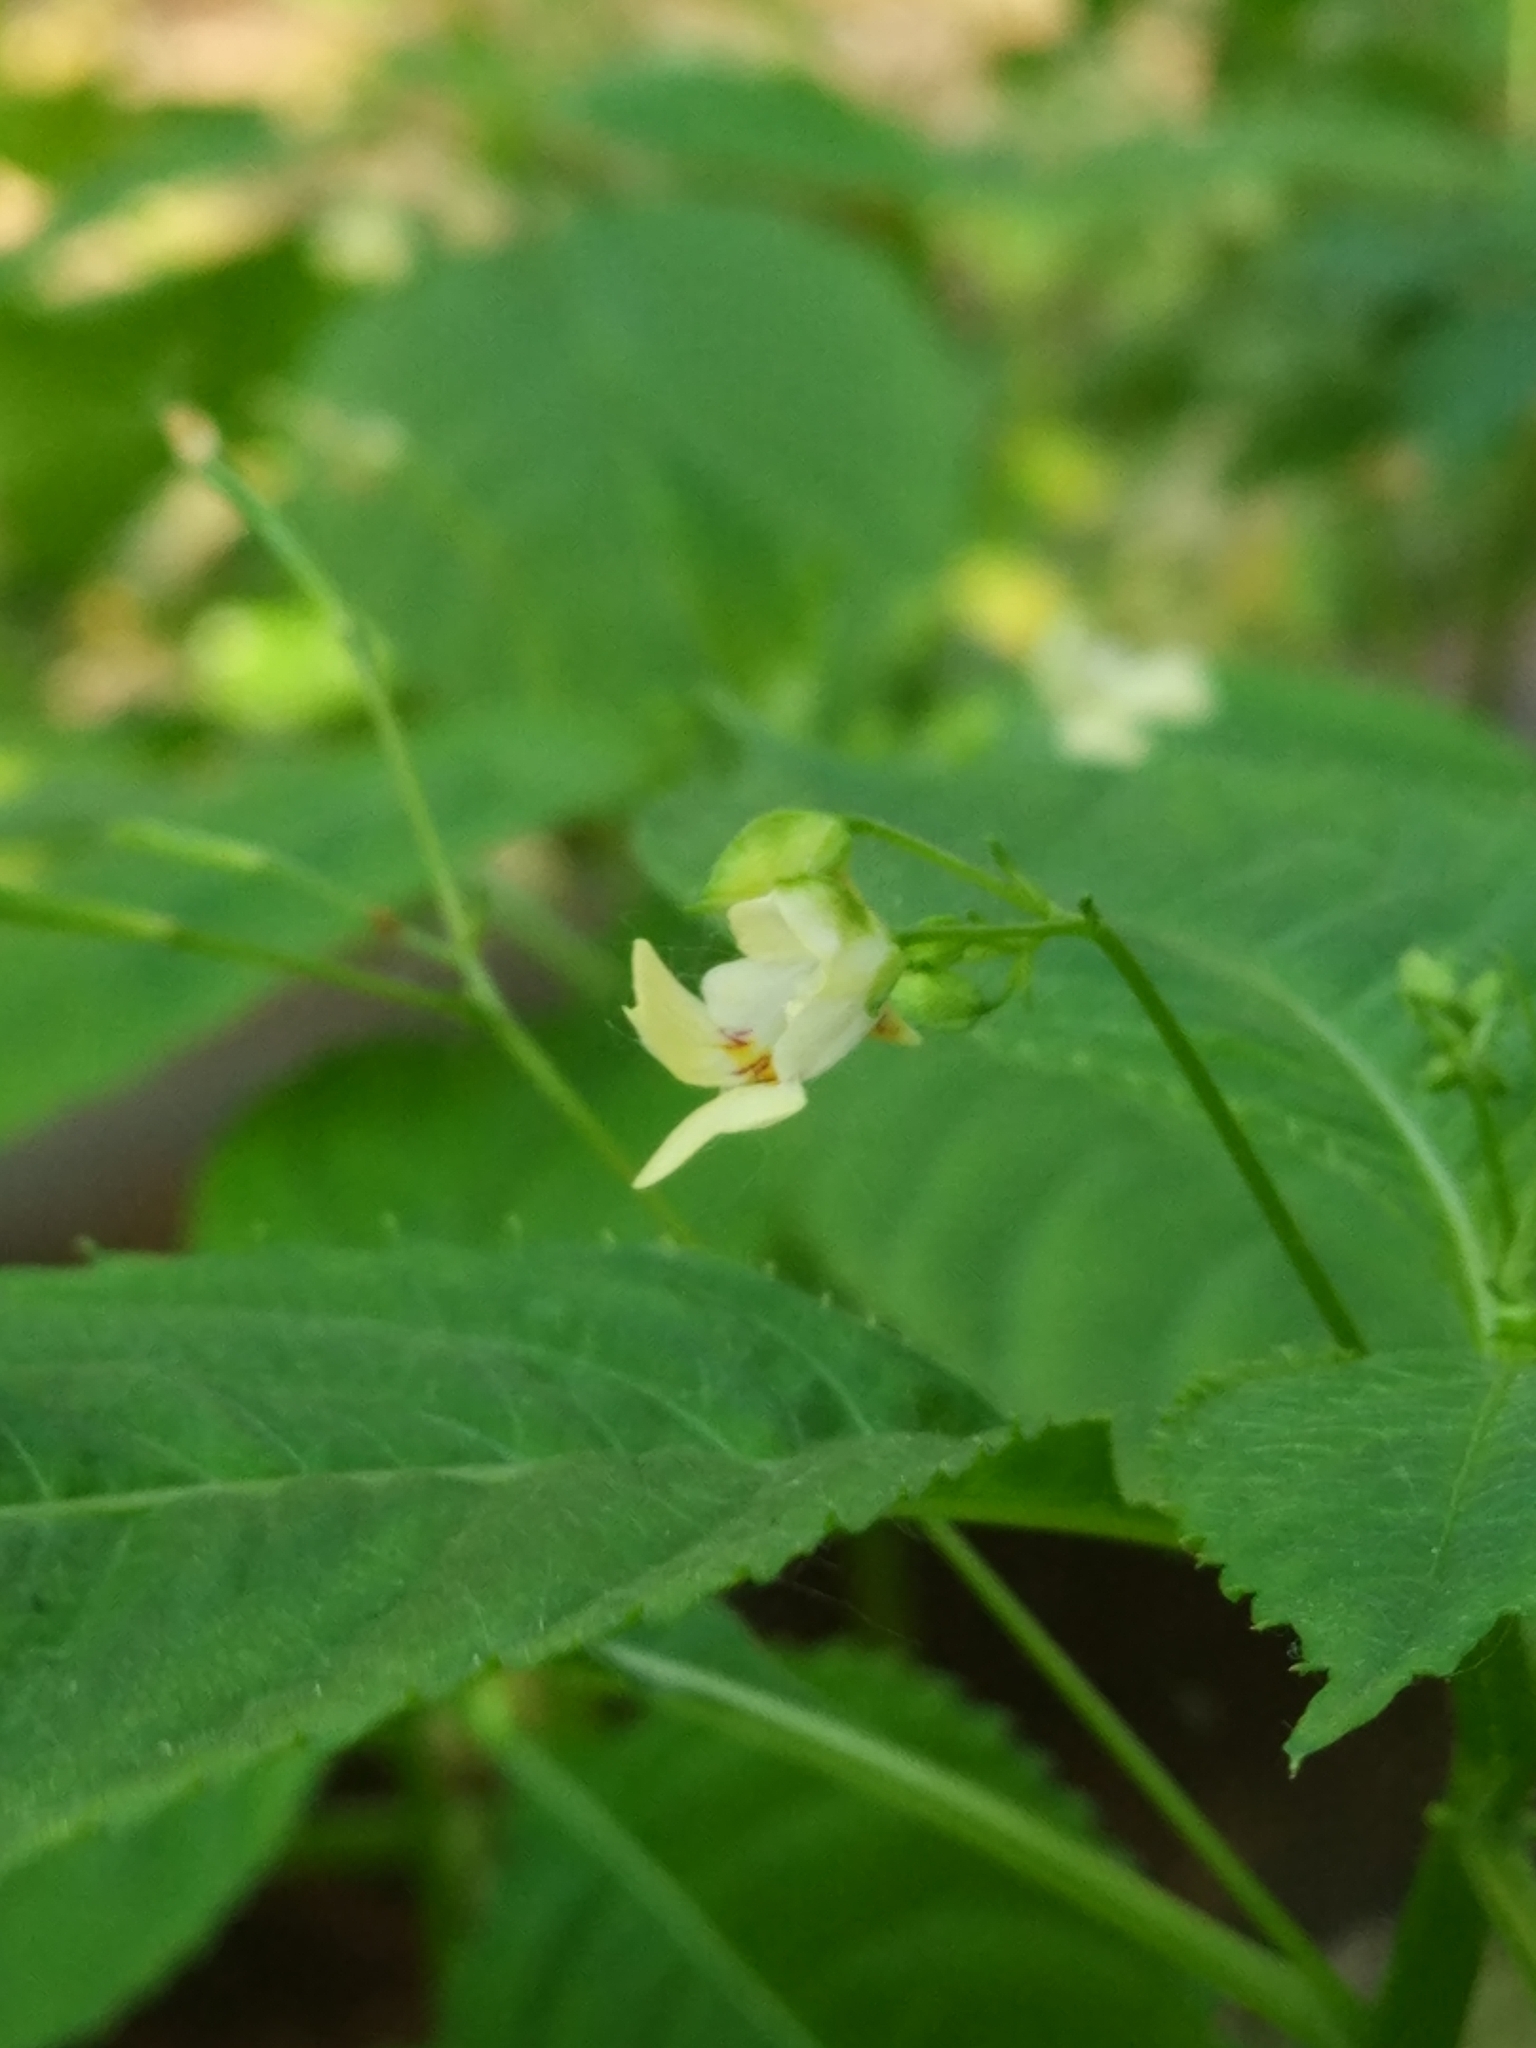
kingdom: Plantae
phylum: Tracheophyta
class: Magnoliopsida
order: Ericales
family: Balsaminaceae
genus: Impatiens
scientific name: Impatiens parviflora
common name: Small balsam
